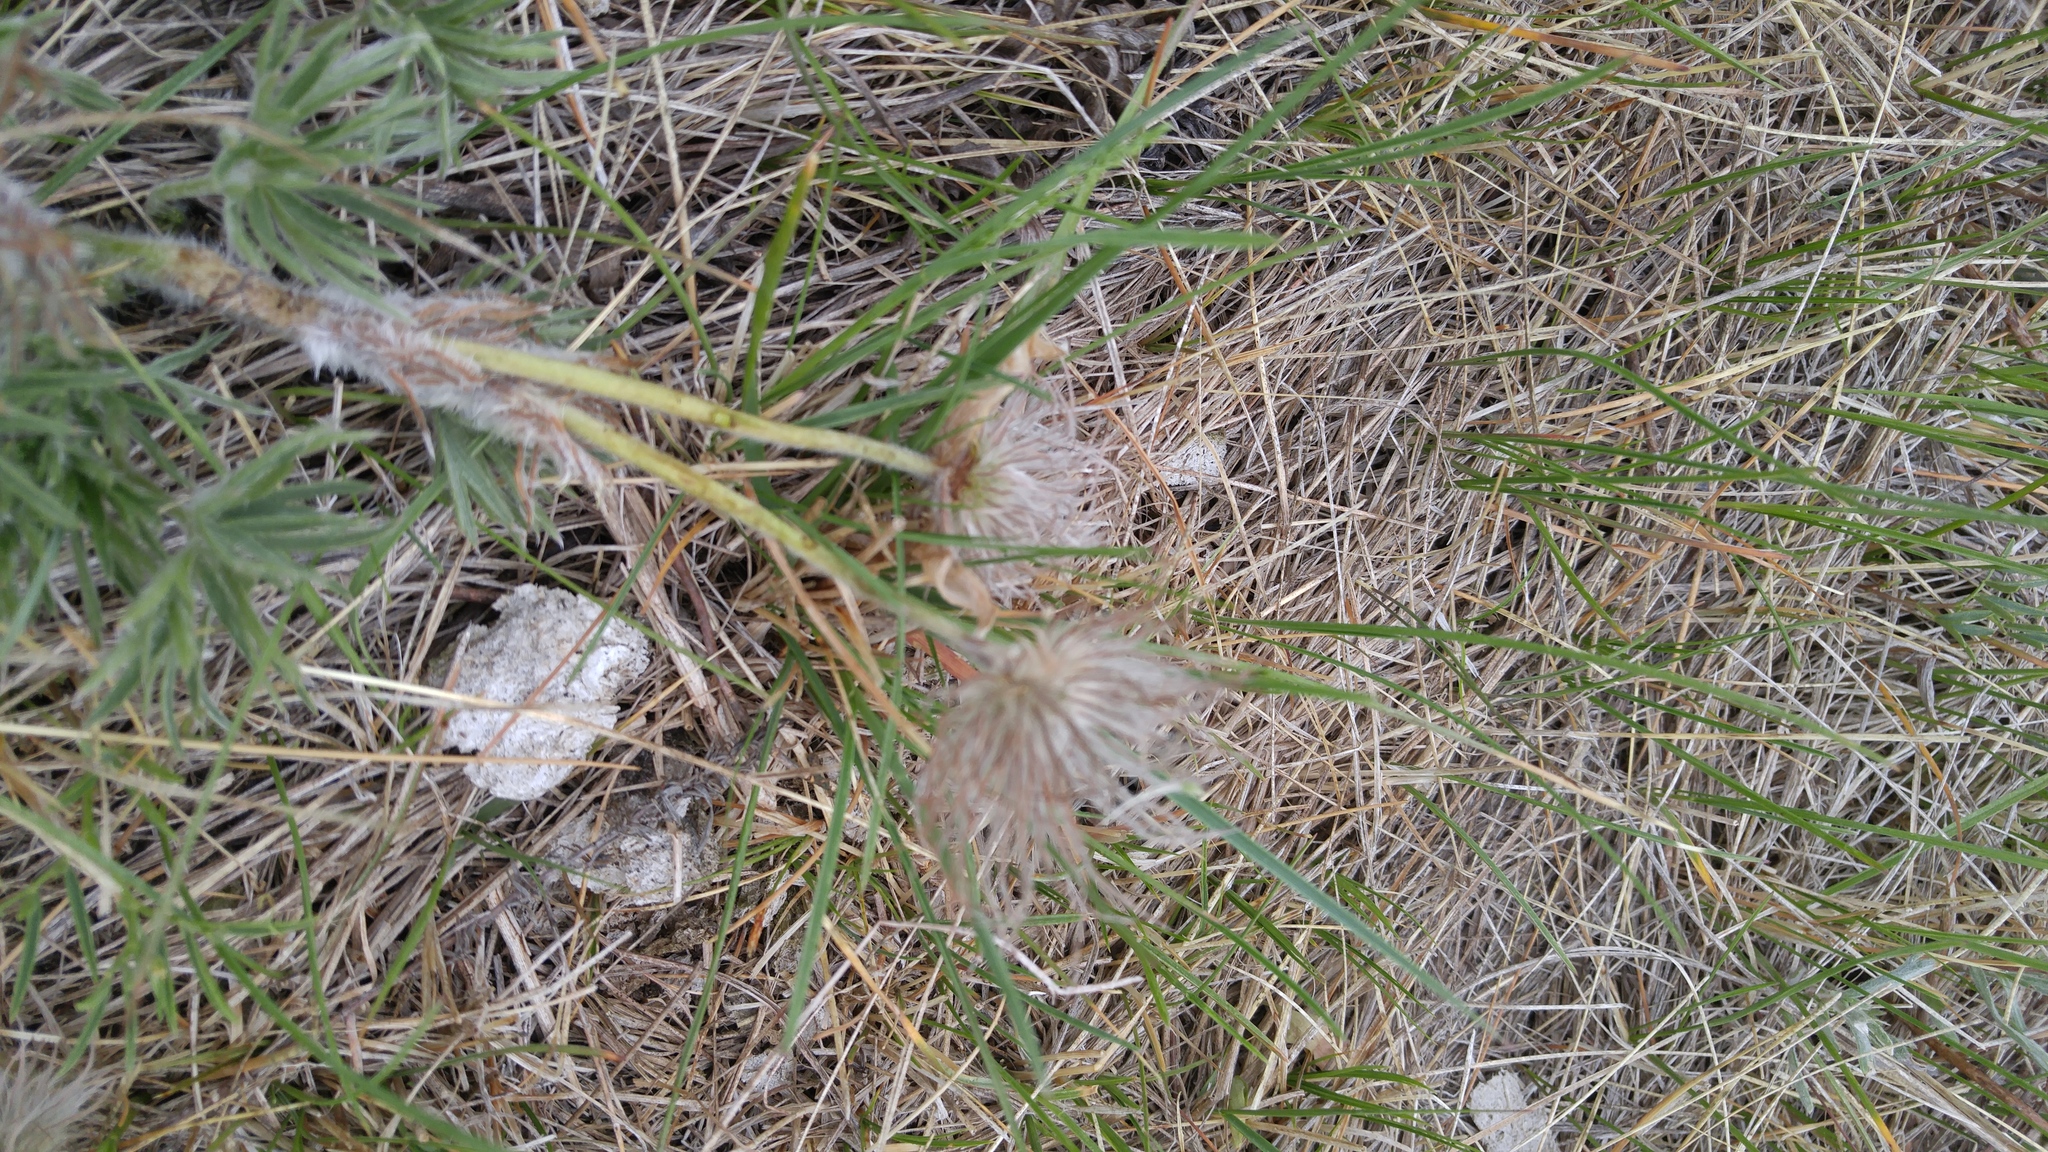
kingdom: Plantae
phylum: Tracheophyta
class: Magnoliopsida
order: Ranunculales
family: Ranunculaceae
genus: Pulsatilla
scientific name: Pulsatilla nuttalliana
